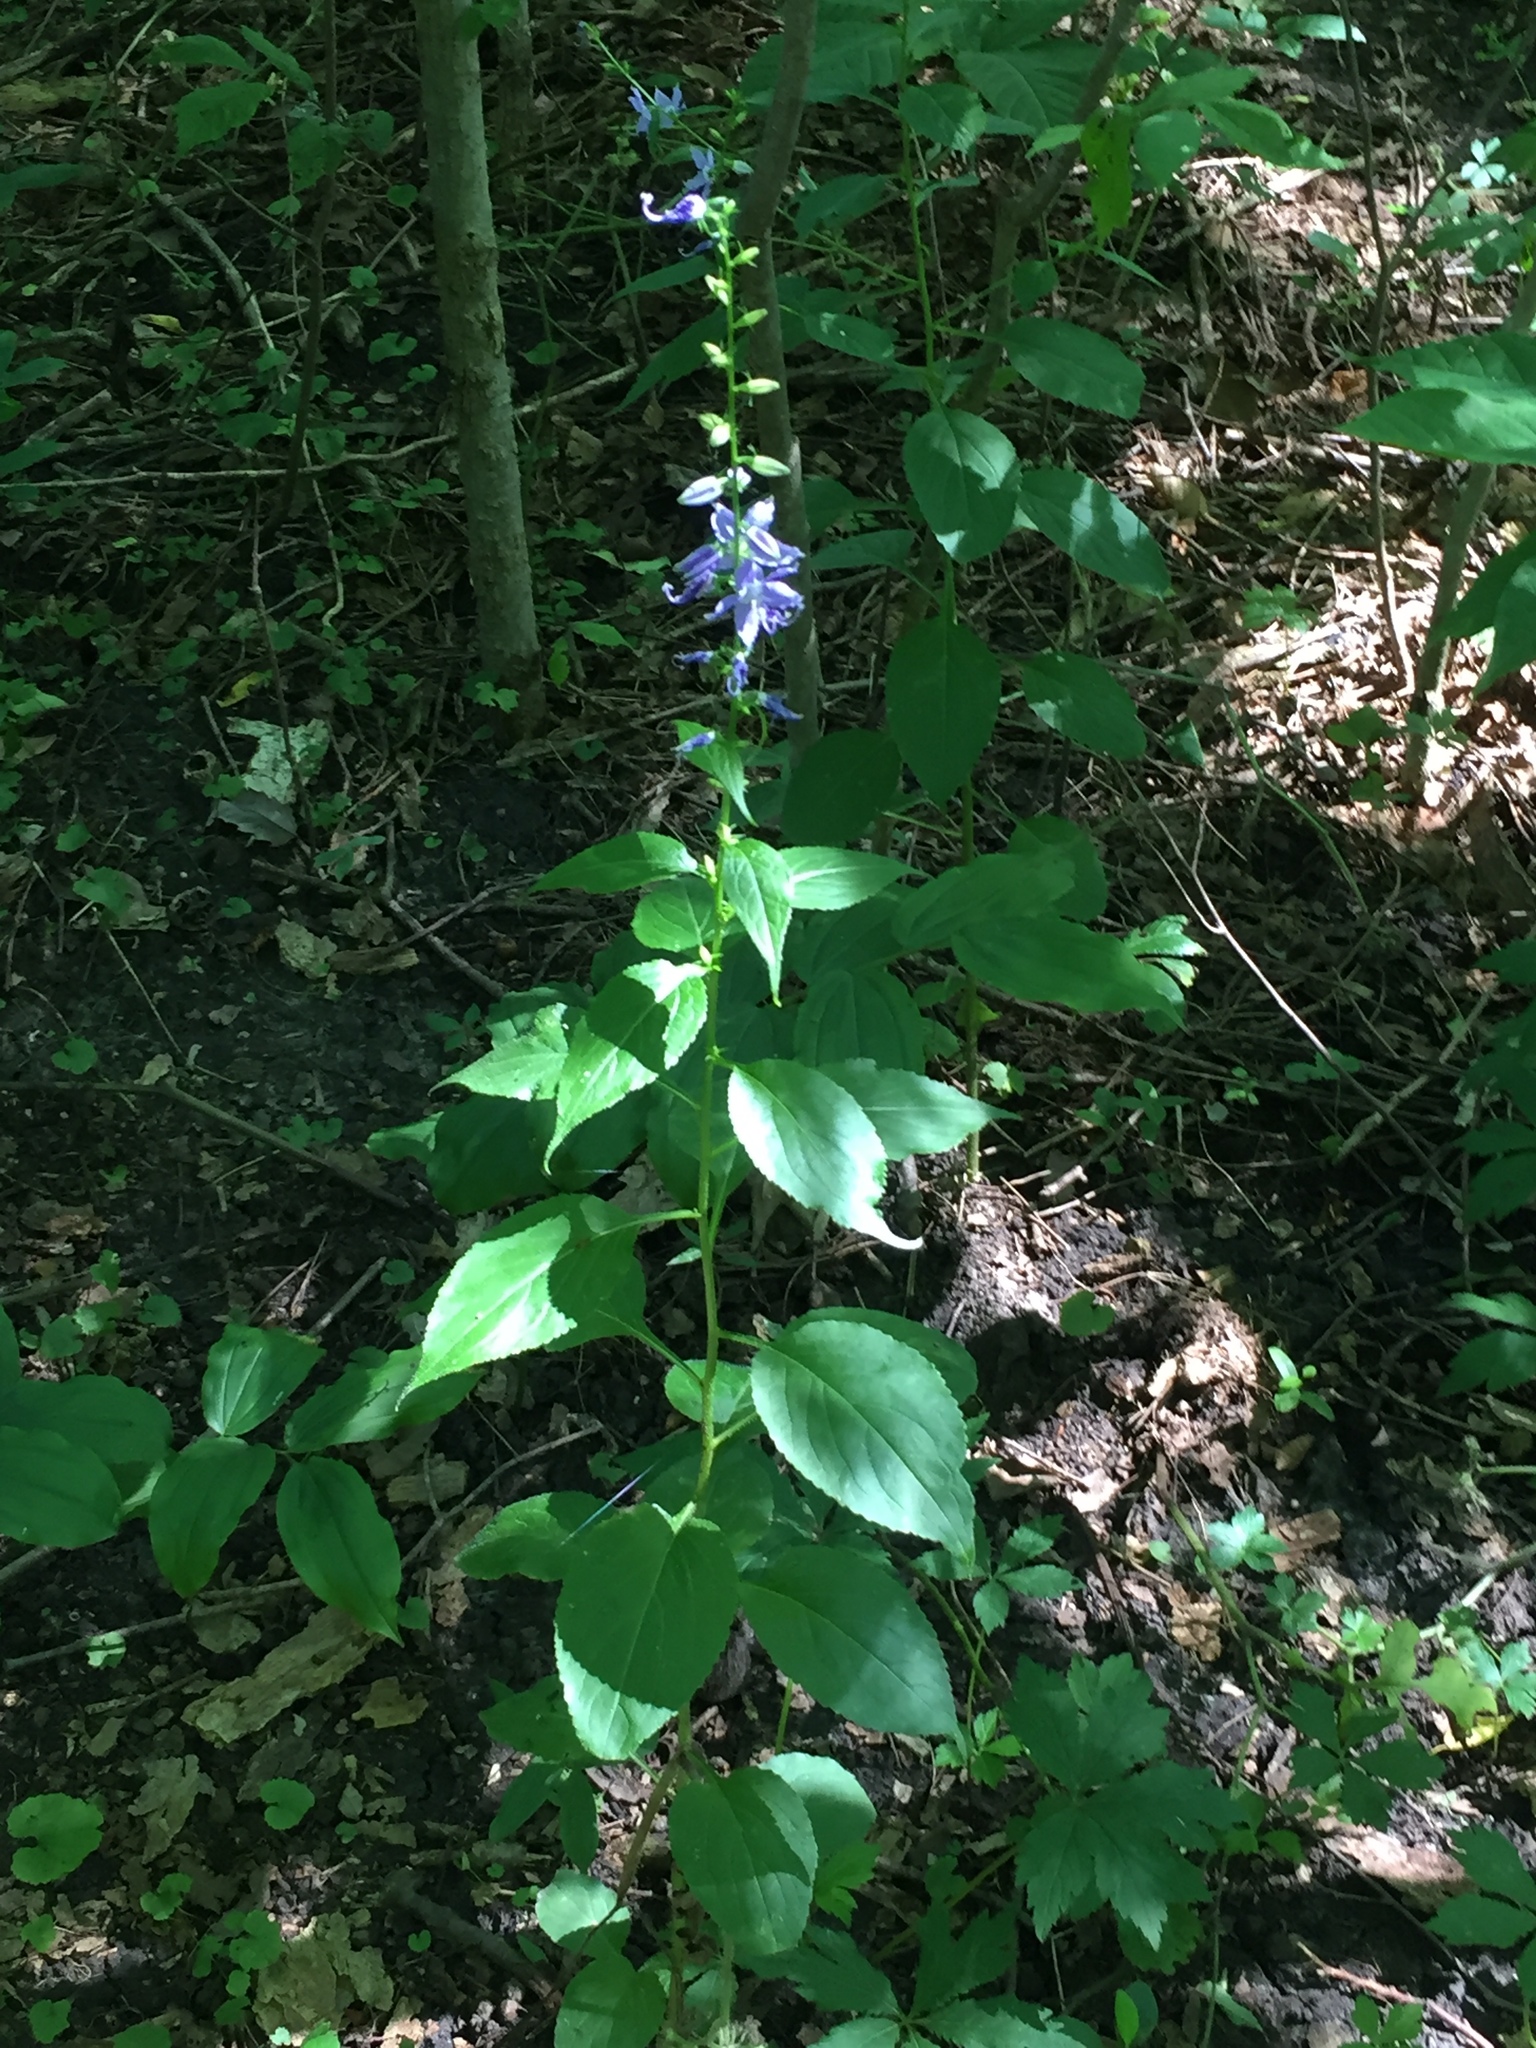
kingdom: Plantae
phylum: Tracheophyta
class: Magnoliopsida
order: Asterales
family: Campanulaceae
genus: Campanulastrum
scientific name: Campanulastrum americanum
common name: American bellflower
